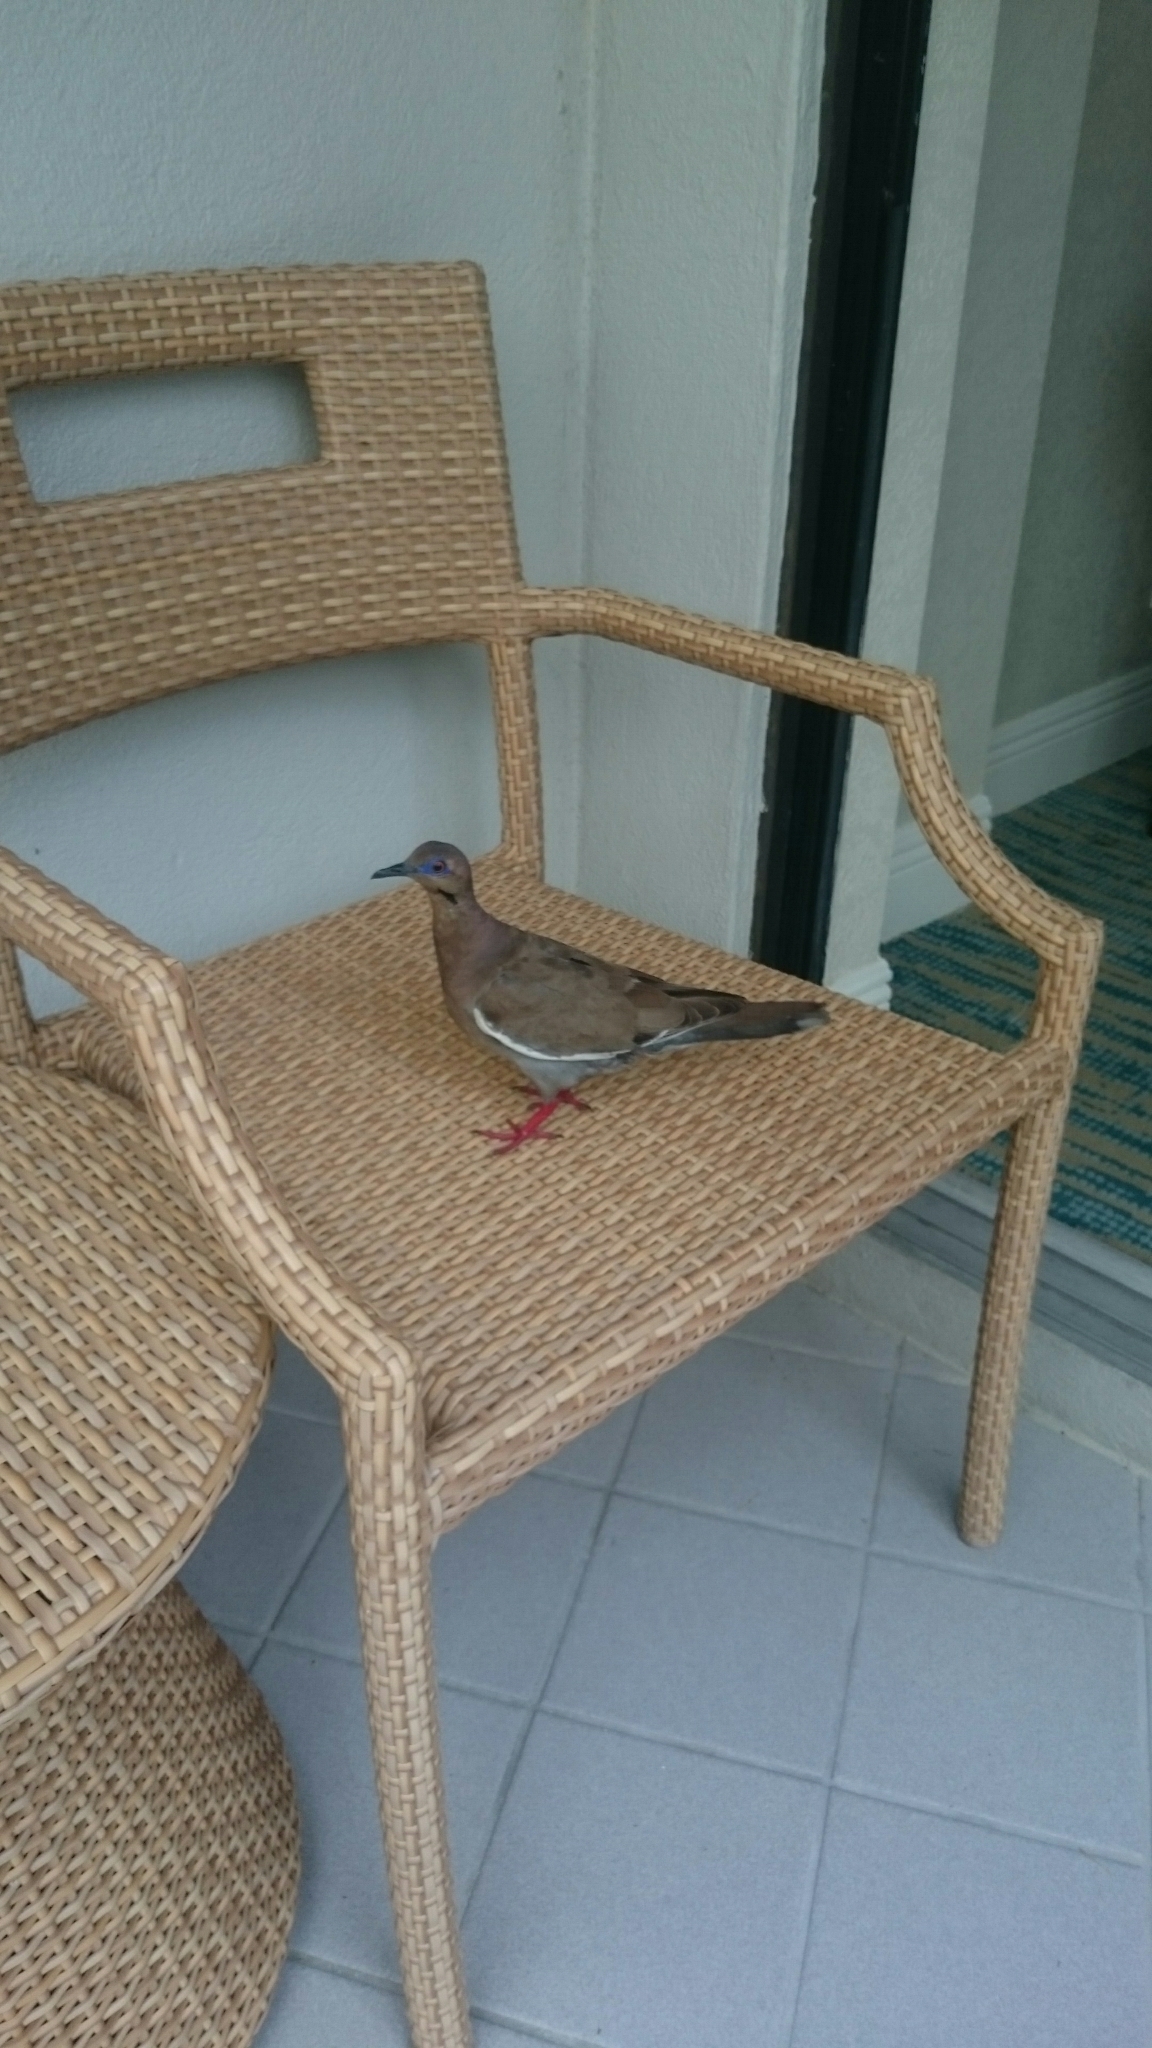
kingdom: Animalia
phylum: Chordata
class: Aves
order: Columbiformes
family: Columbidae
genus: Zenaida
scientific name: Zenaida asiatica
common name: White-winged dove
